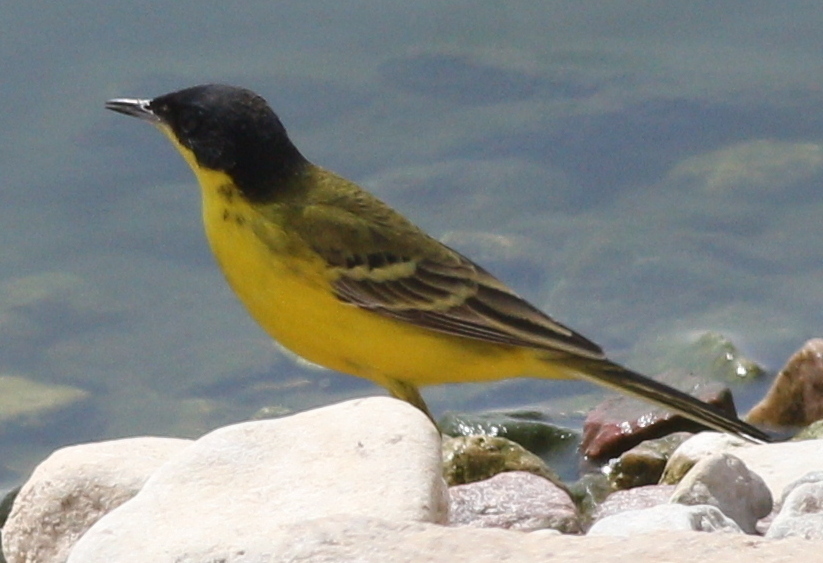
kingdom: Animalia
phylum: Chordata
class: Aves
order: Passeriformes
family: Motacillidae
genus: Motacilla
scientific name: Motacilla flava
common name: Western yellow wagtail
